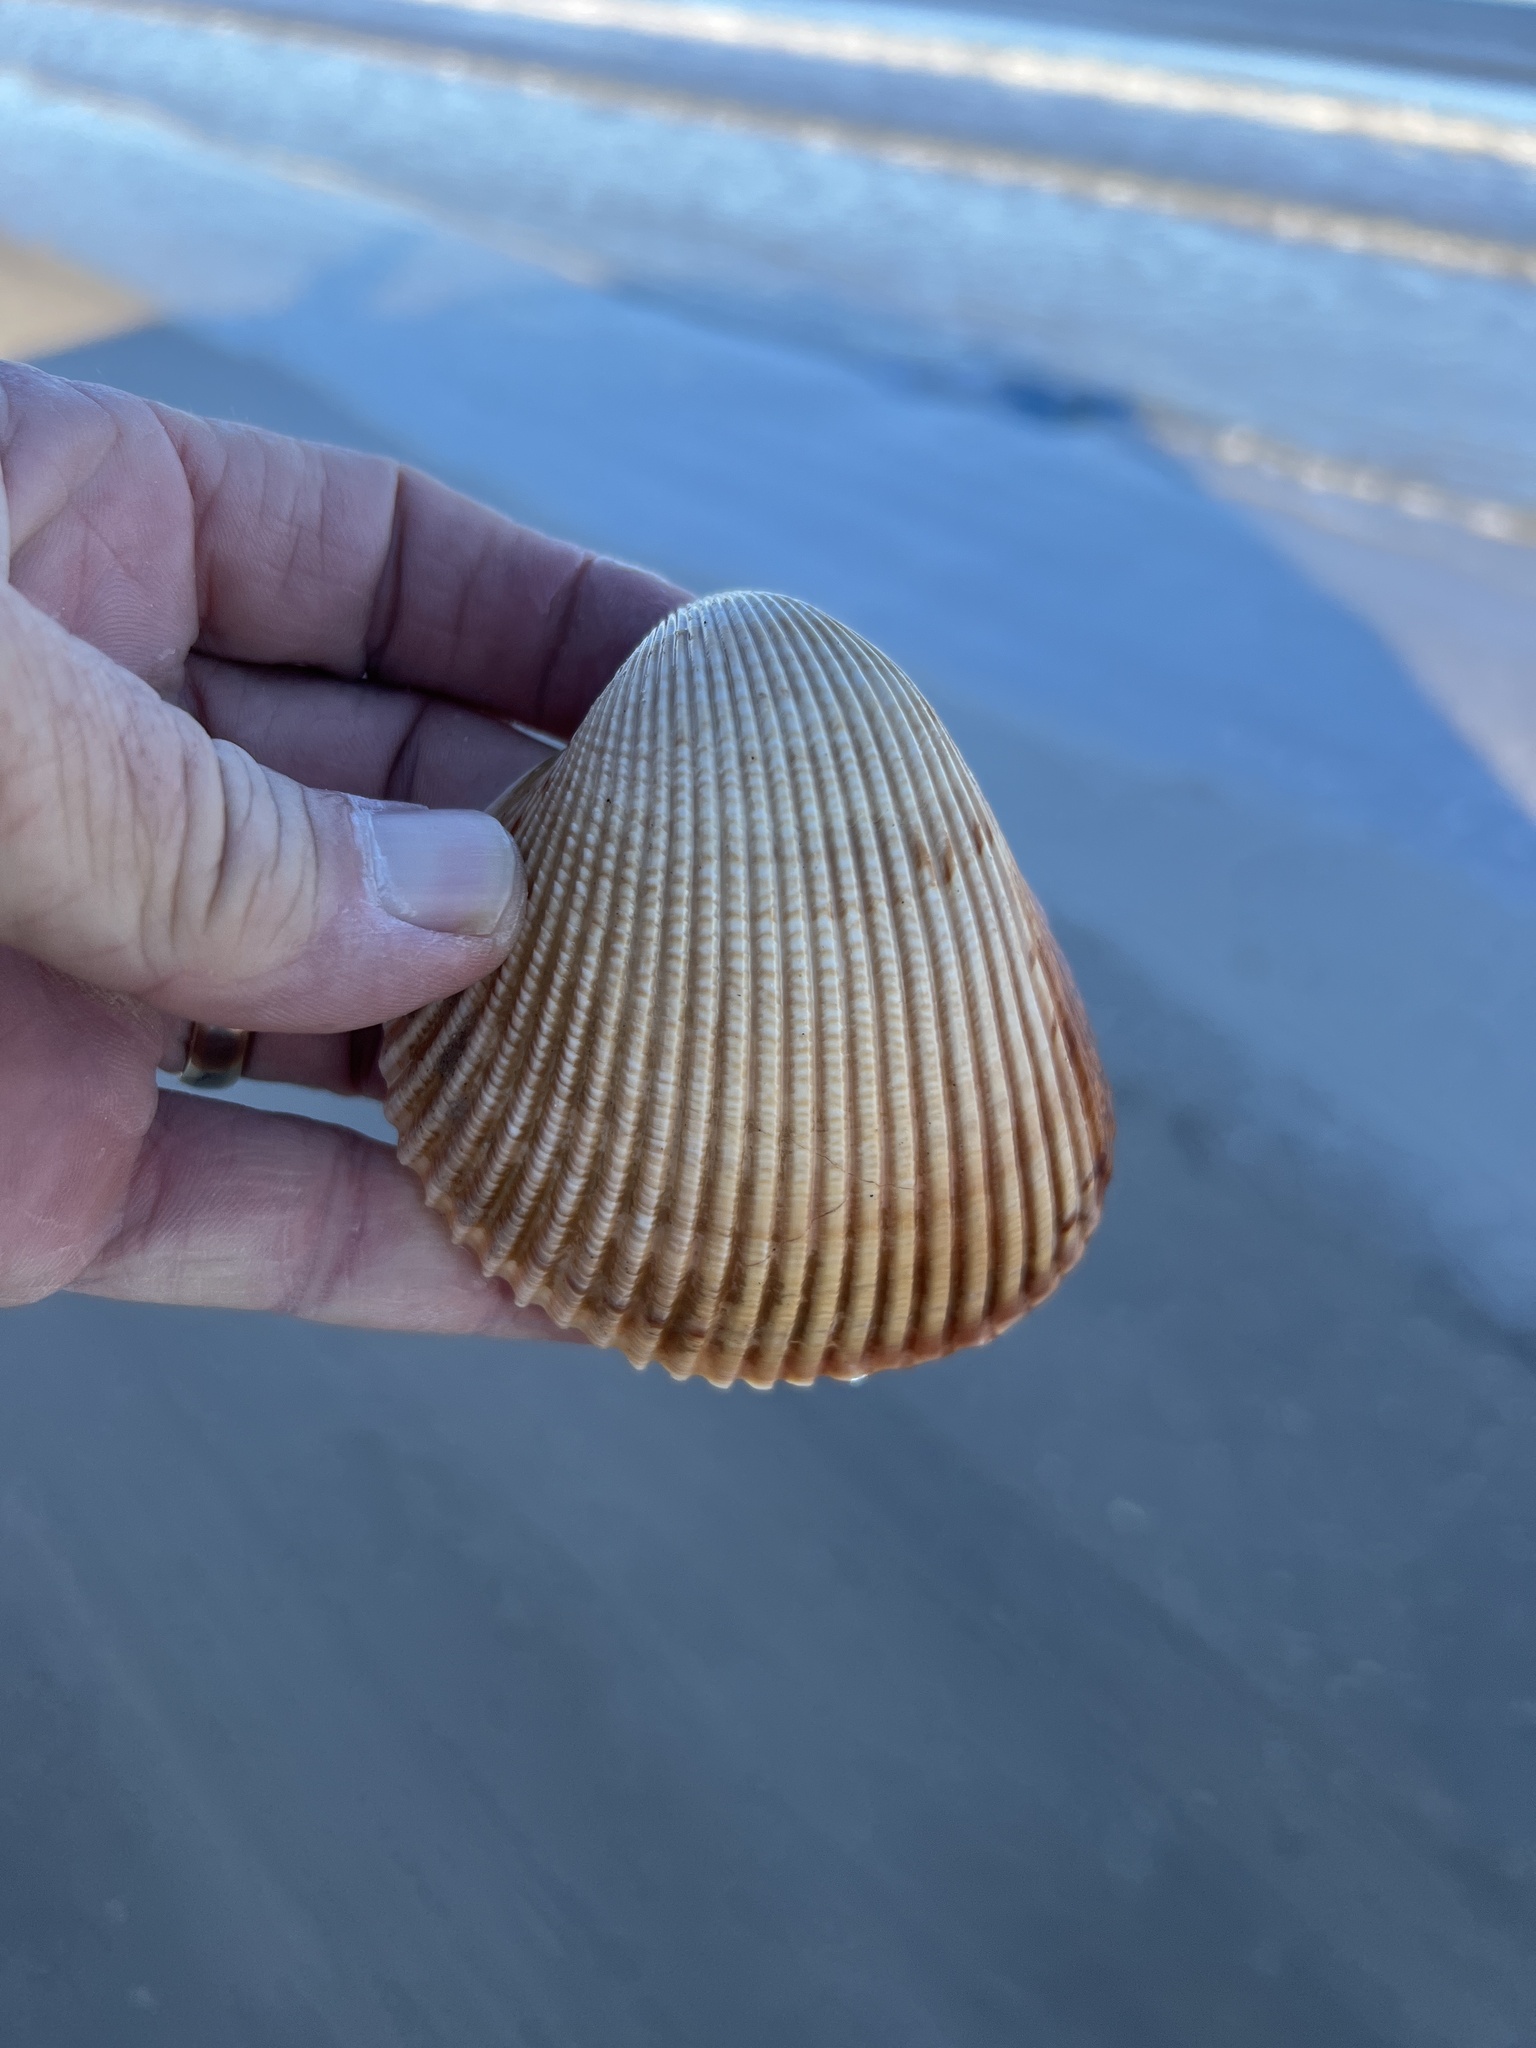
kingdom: Animalia
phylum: Mollusca
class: Bivalvia
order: Cardiida
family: Cardiidae
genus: Dinocardium
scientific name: Dinocardium robustum
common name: Atlantic giant cockle
